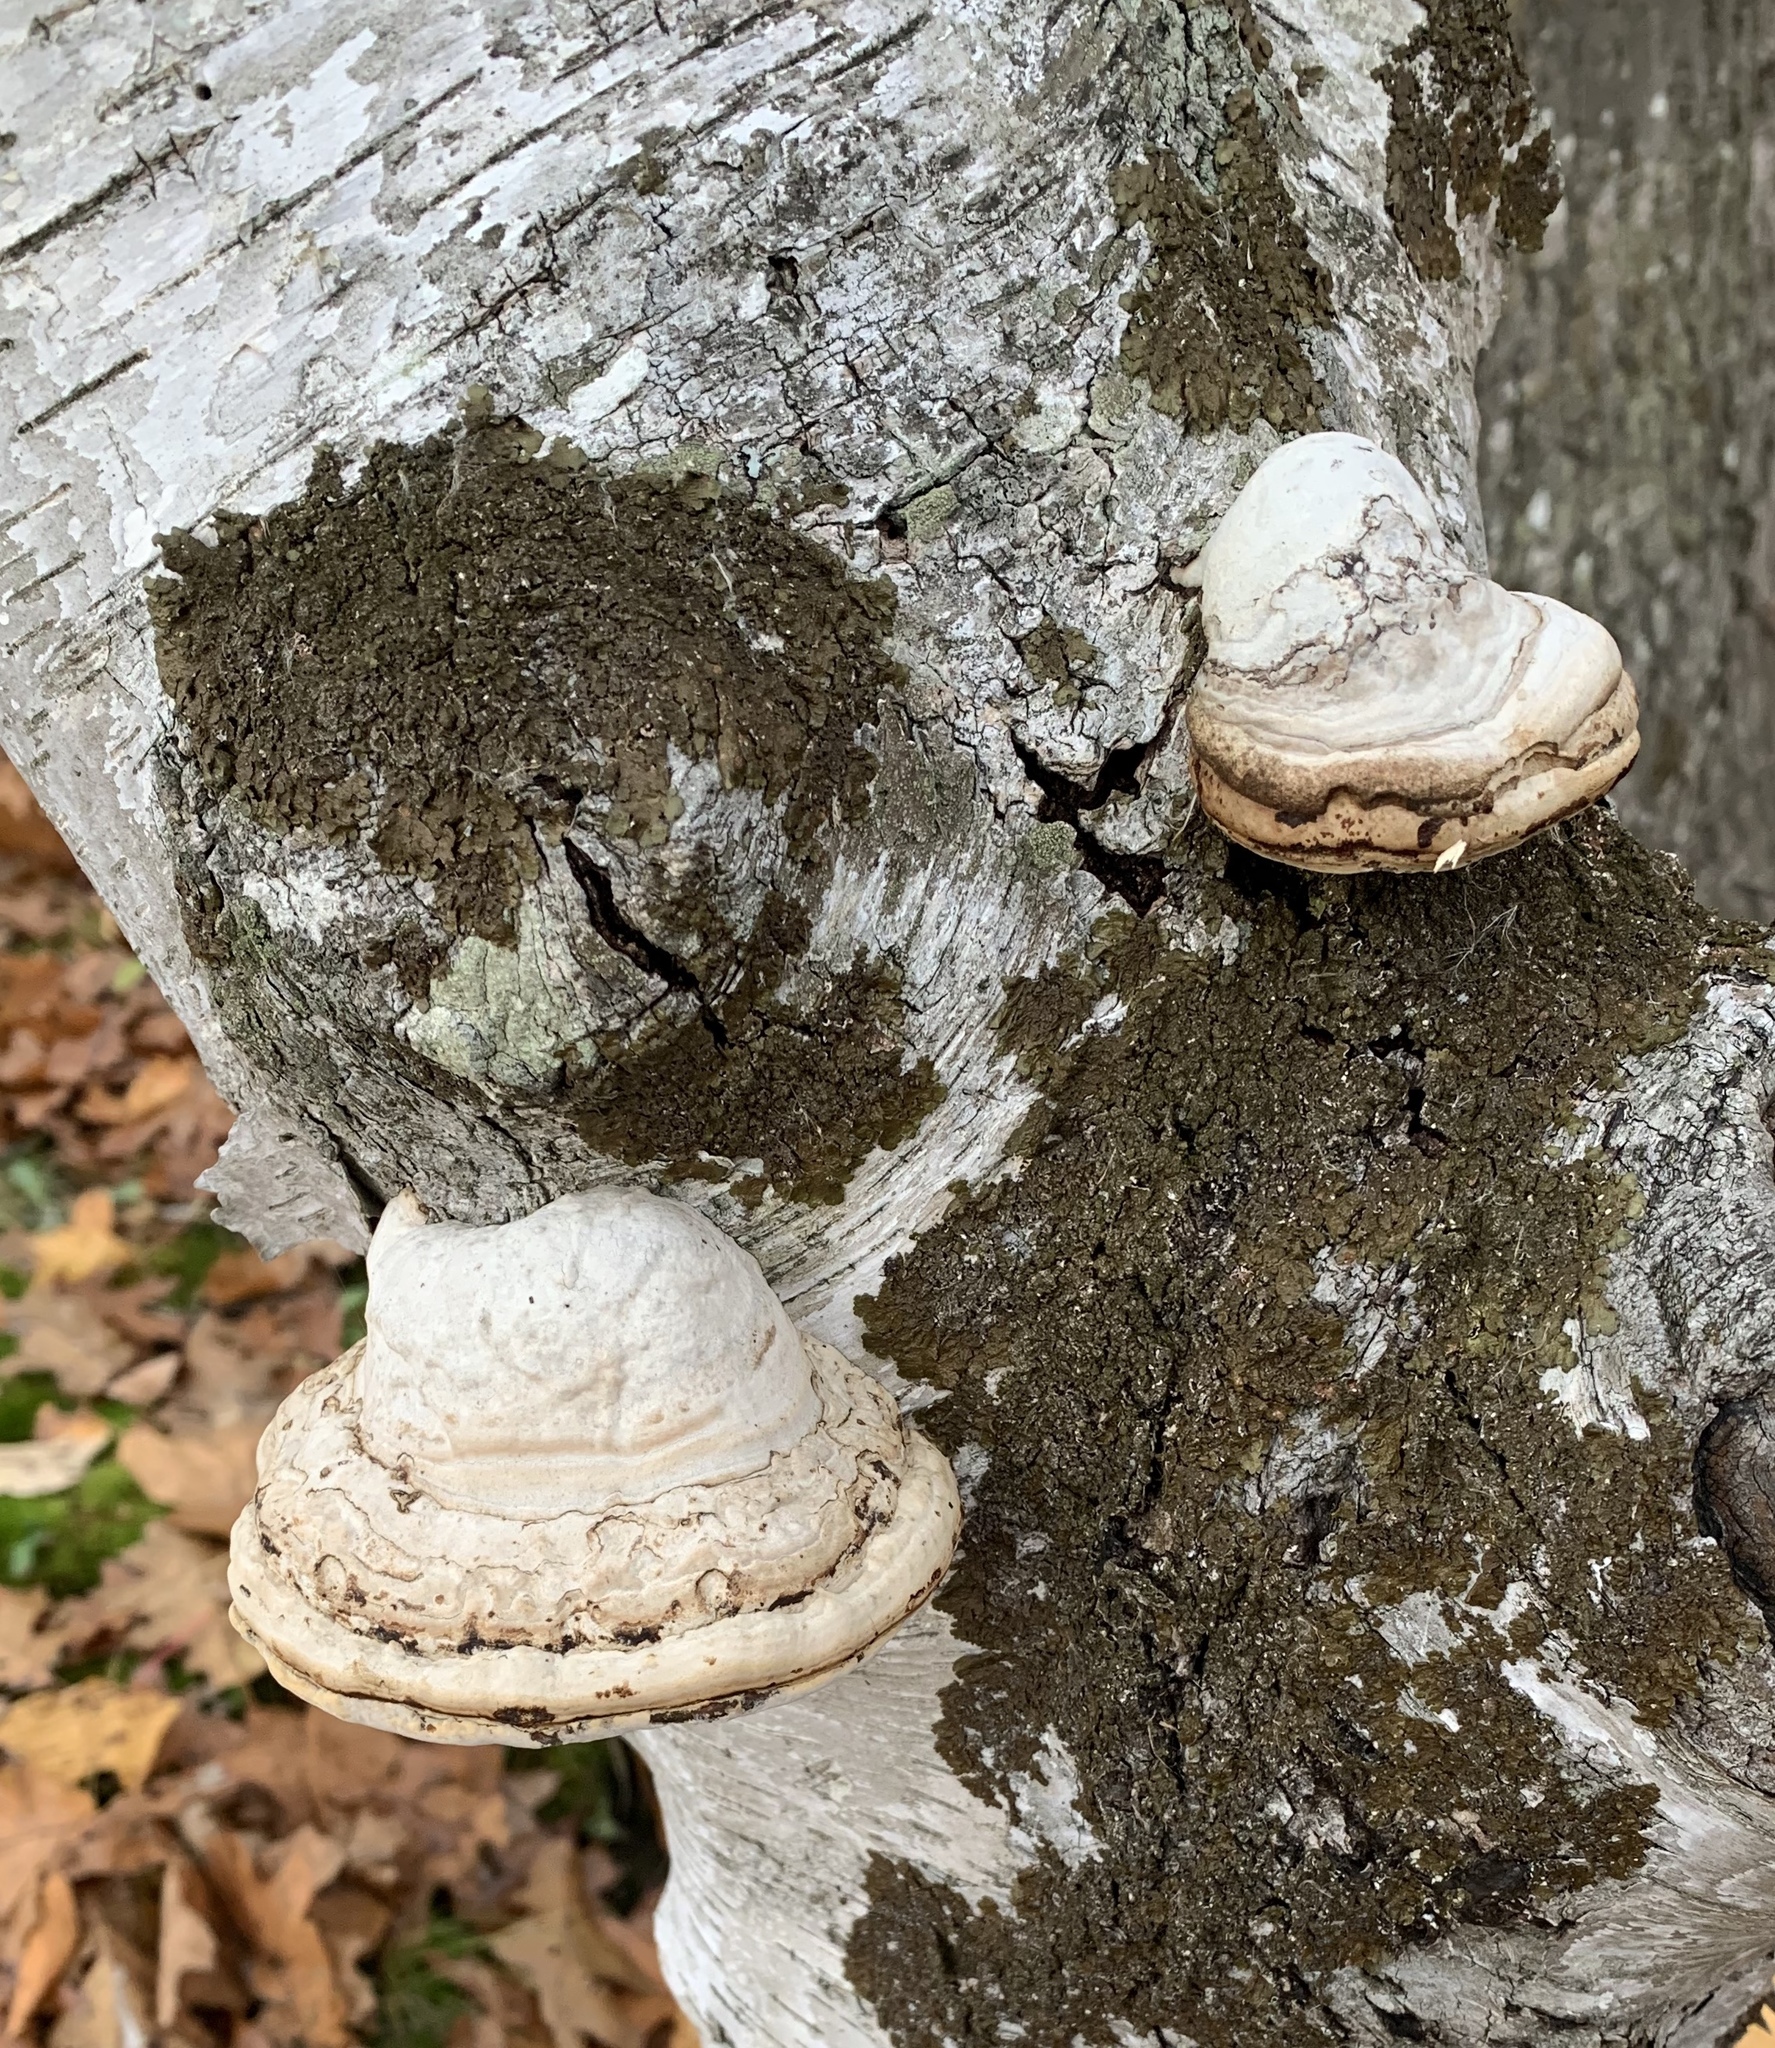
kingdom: Fungi
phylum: Basidiomycota
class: Agaricomycetes
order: Polyporales
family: Polyporaceae
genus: Fomes
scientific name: Fomes fomentarius
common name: Hoof fungus
